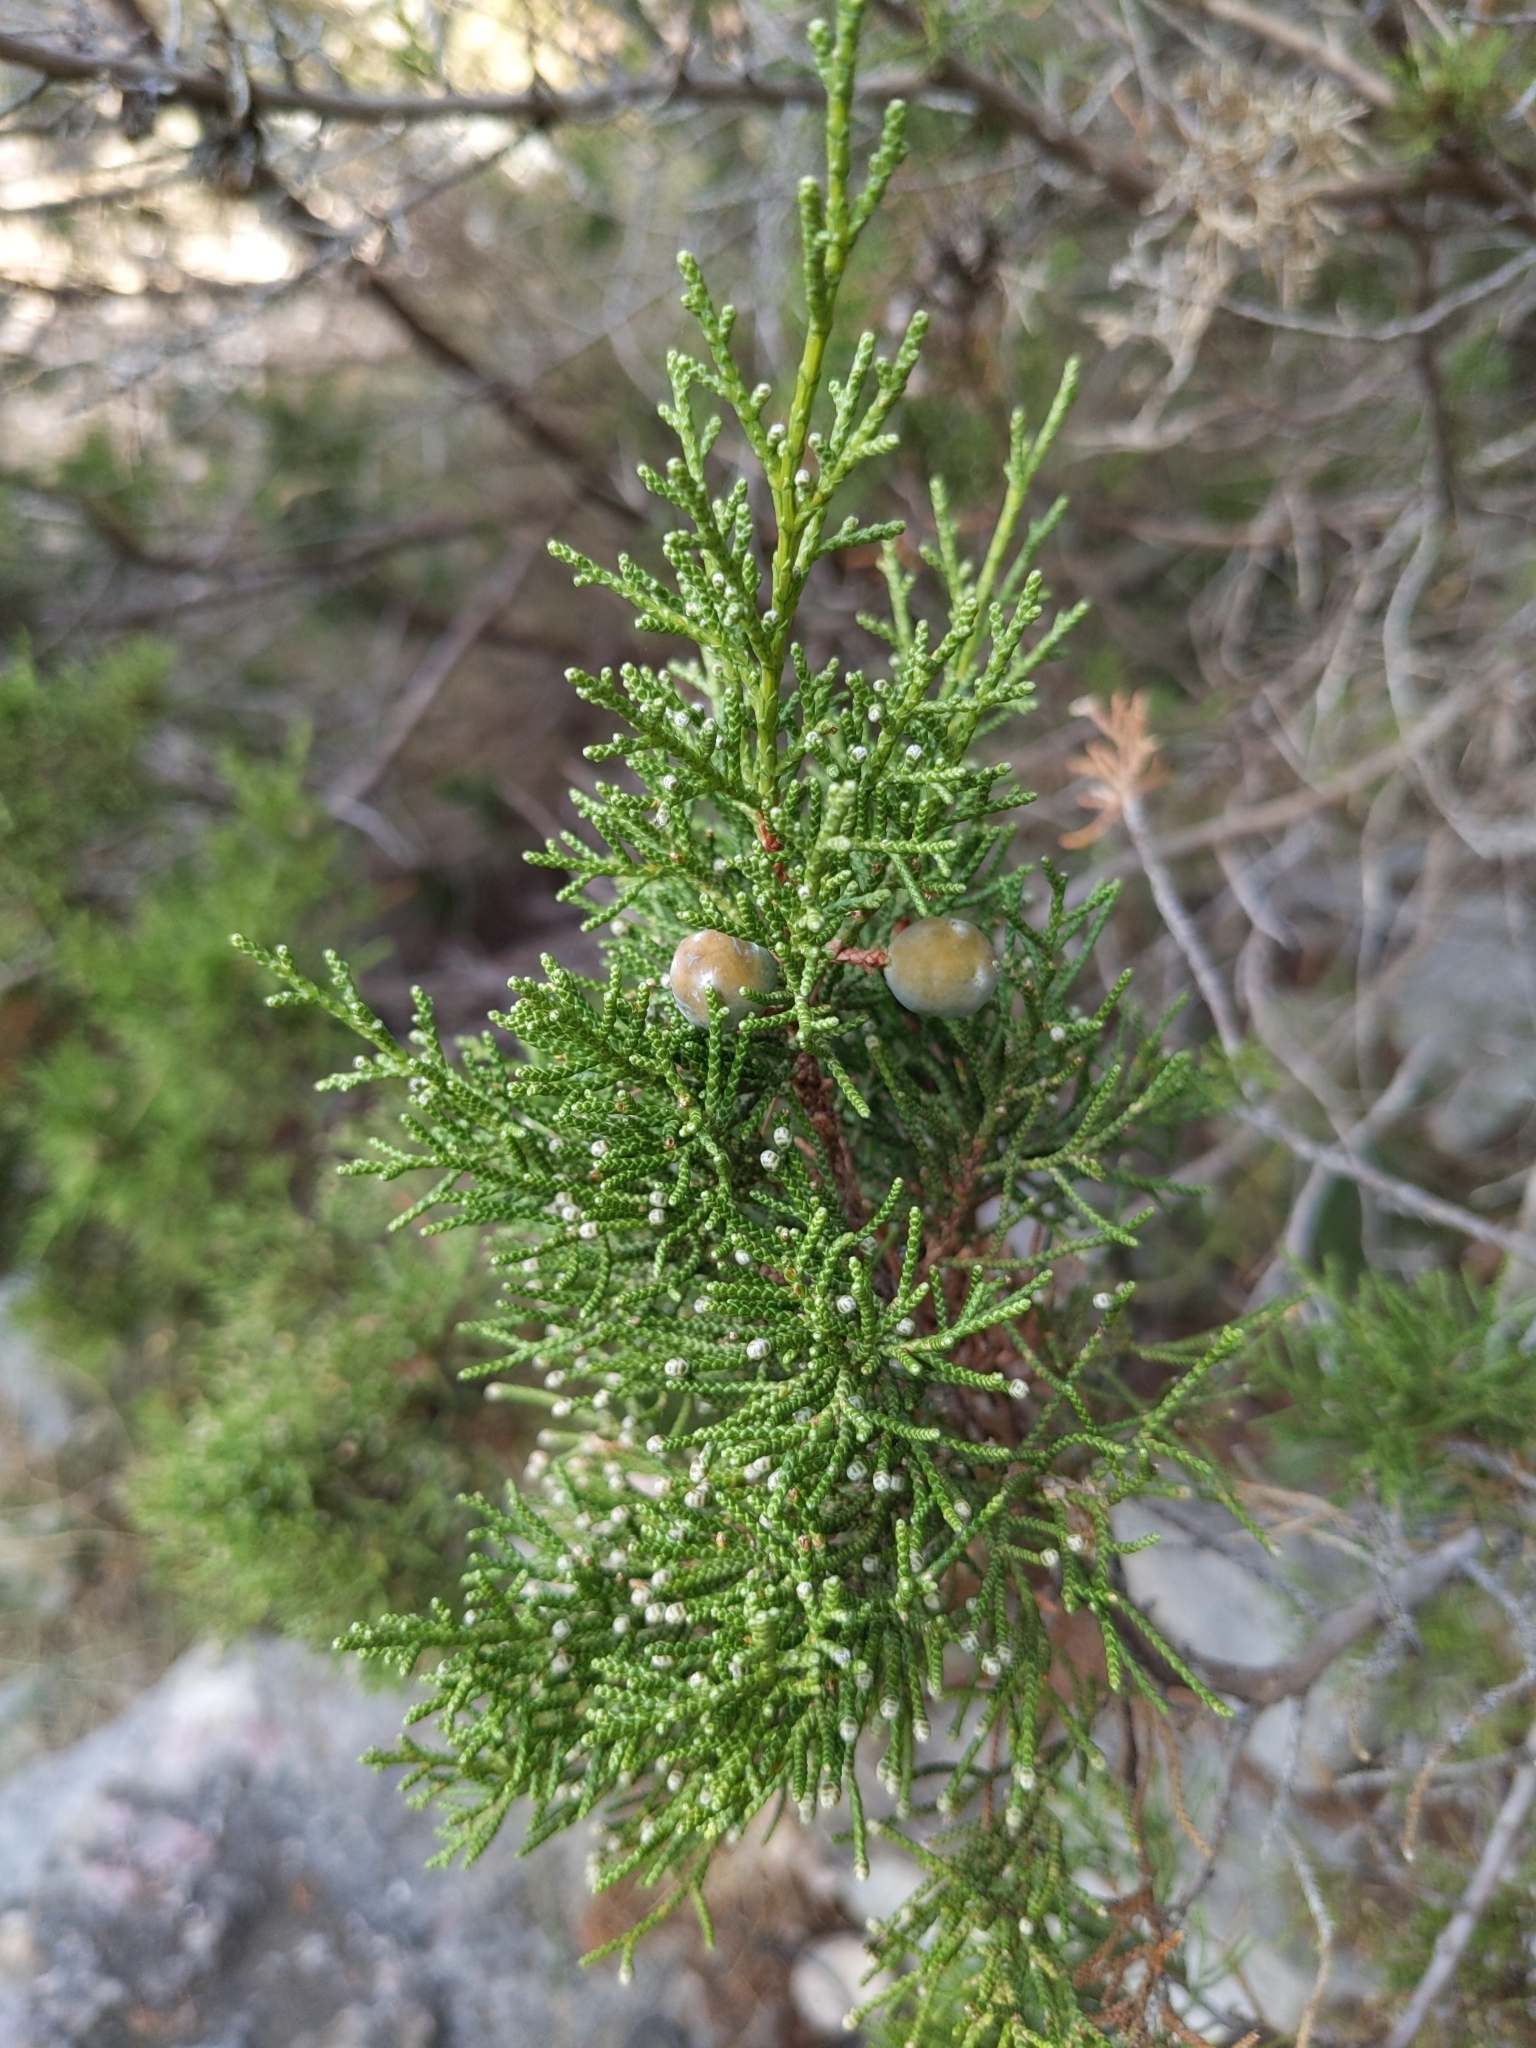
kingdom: Plantae
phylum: Tracheophyta
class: Pinopsida
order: Pinales
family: Cupressaceae
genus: Juniperus
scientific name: Juniperus phoenicea
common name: Phoenician juniper
